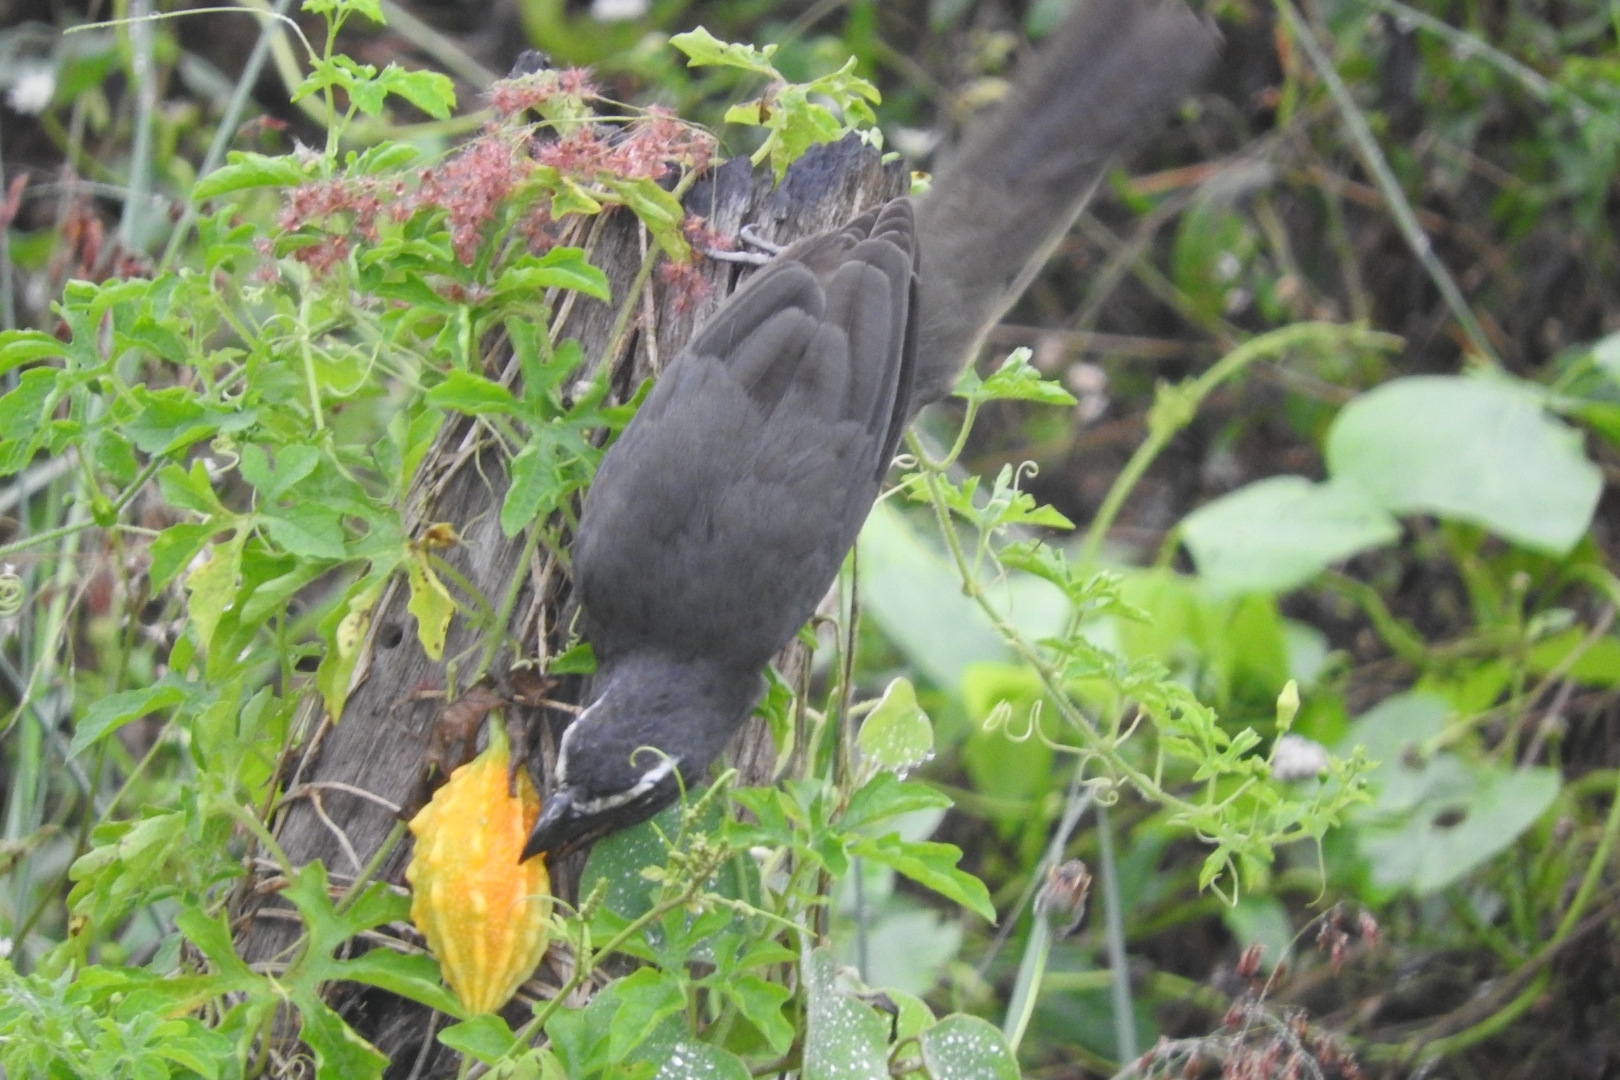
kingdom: Animalia
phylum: Chordata
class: Aves
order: Passeriformes
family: Thraupidae
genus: Saltator
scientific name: Saltator grandis
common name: Cinnamon-bellied saltator
